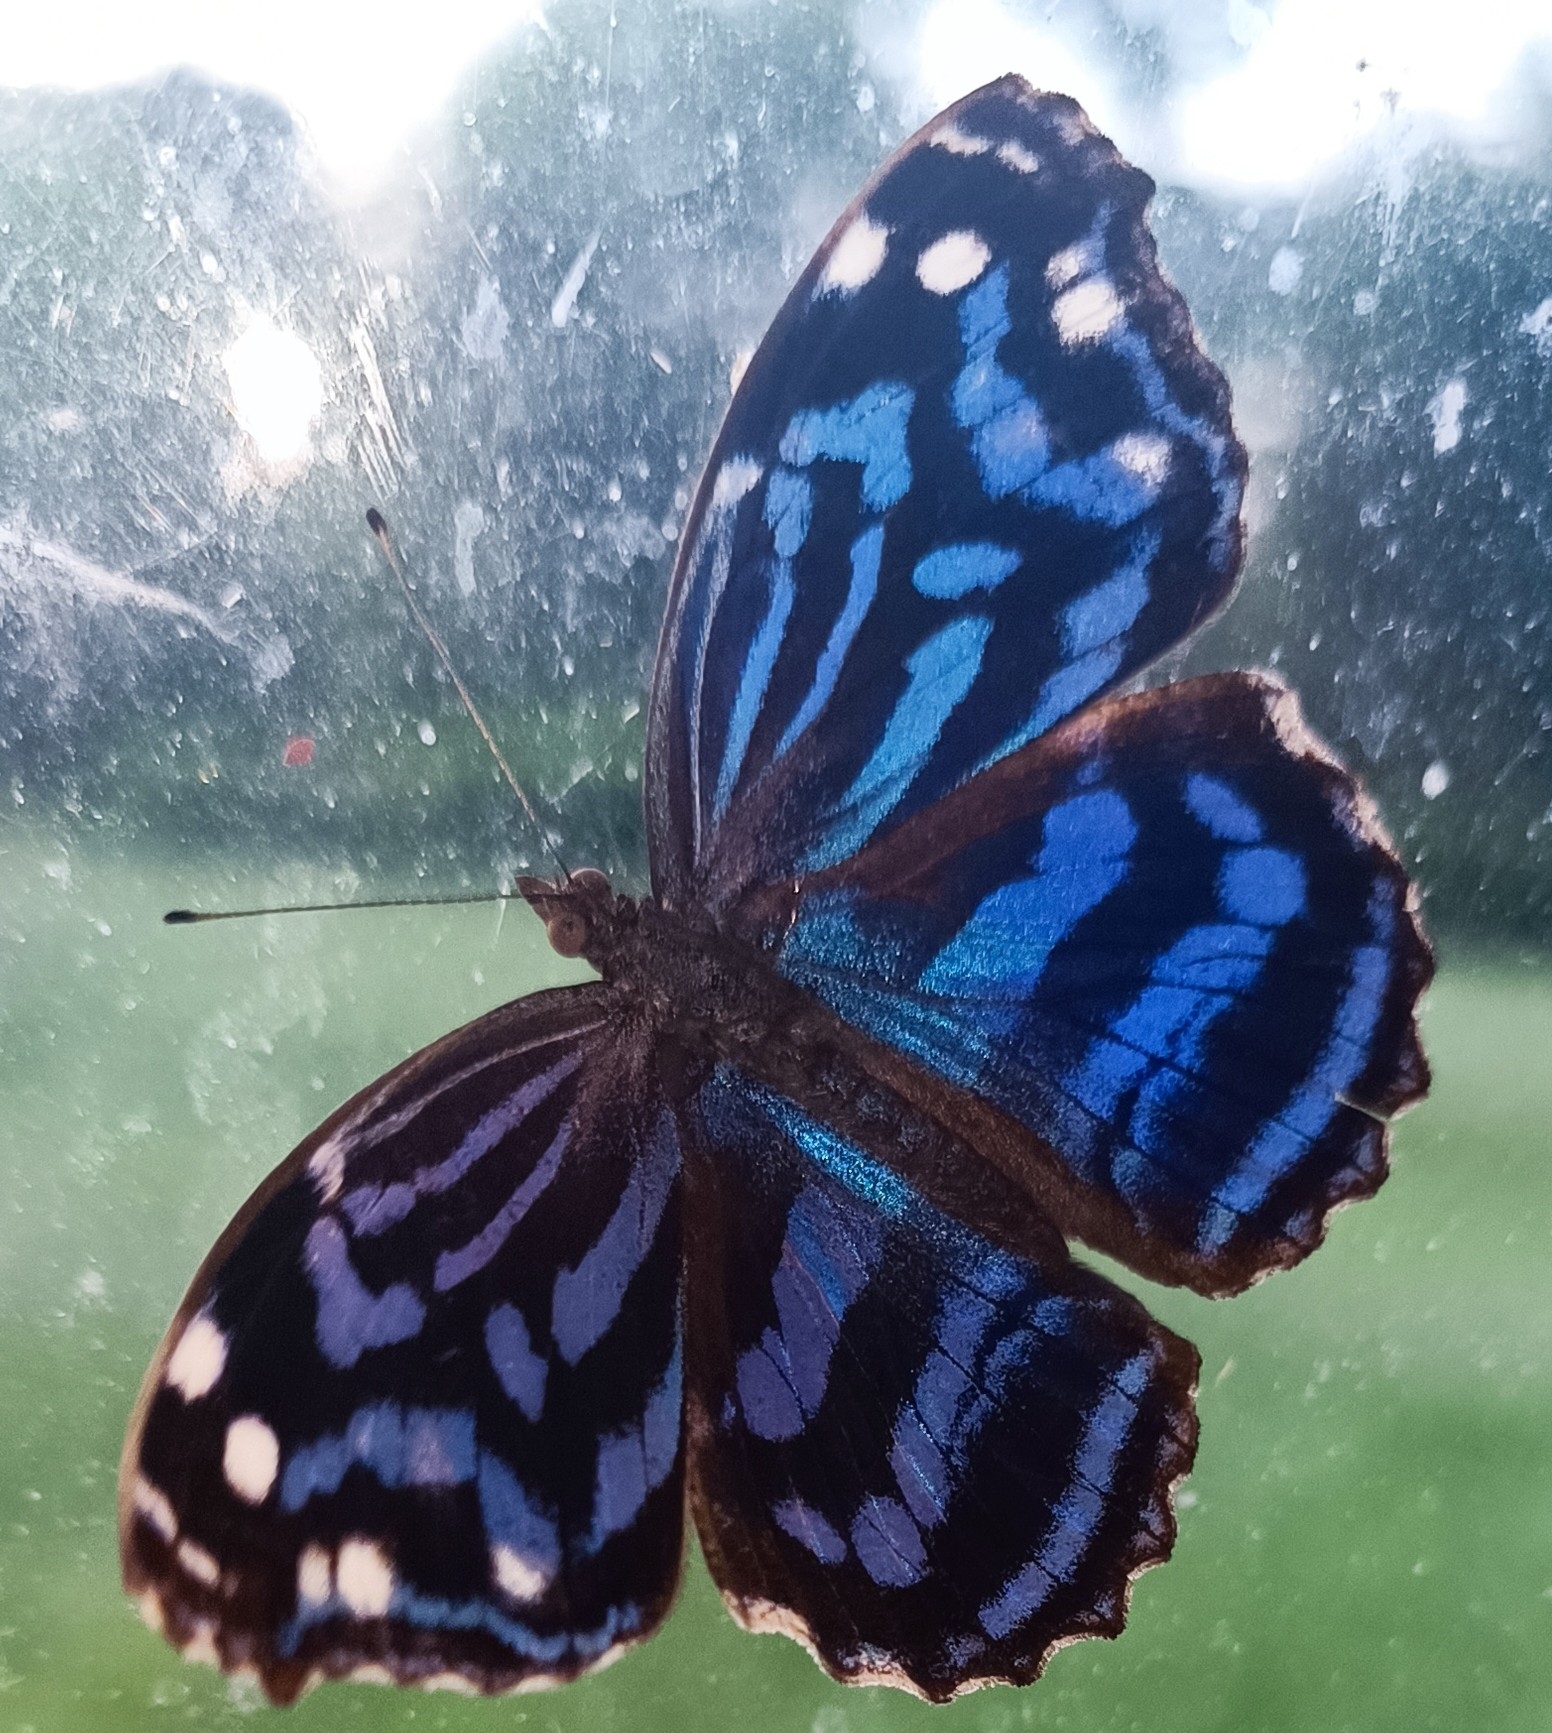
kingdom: Animalia
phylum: Arthropoda
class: Insecta
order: Lepidoptera
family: Nymphalidae
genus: Myscelia
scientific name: Myscelia ethusa
